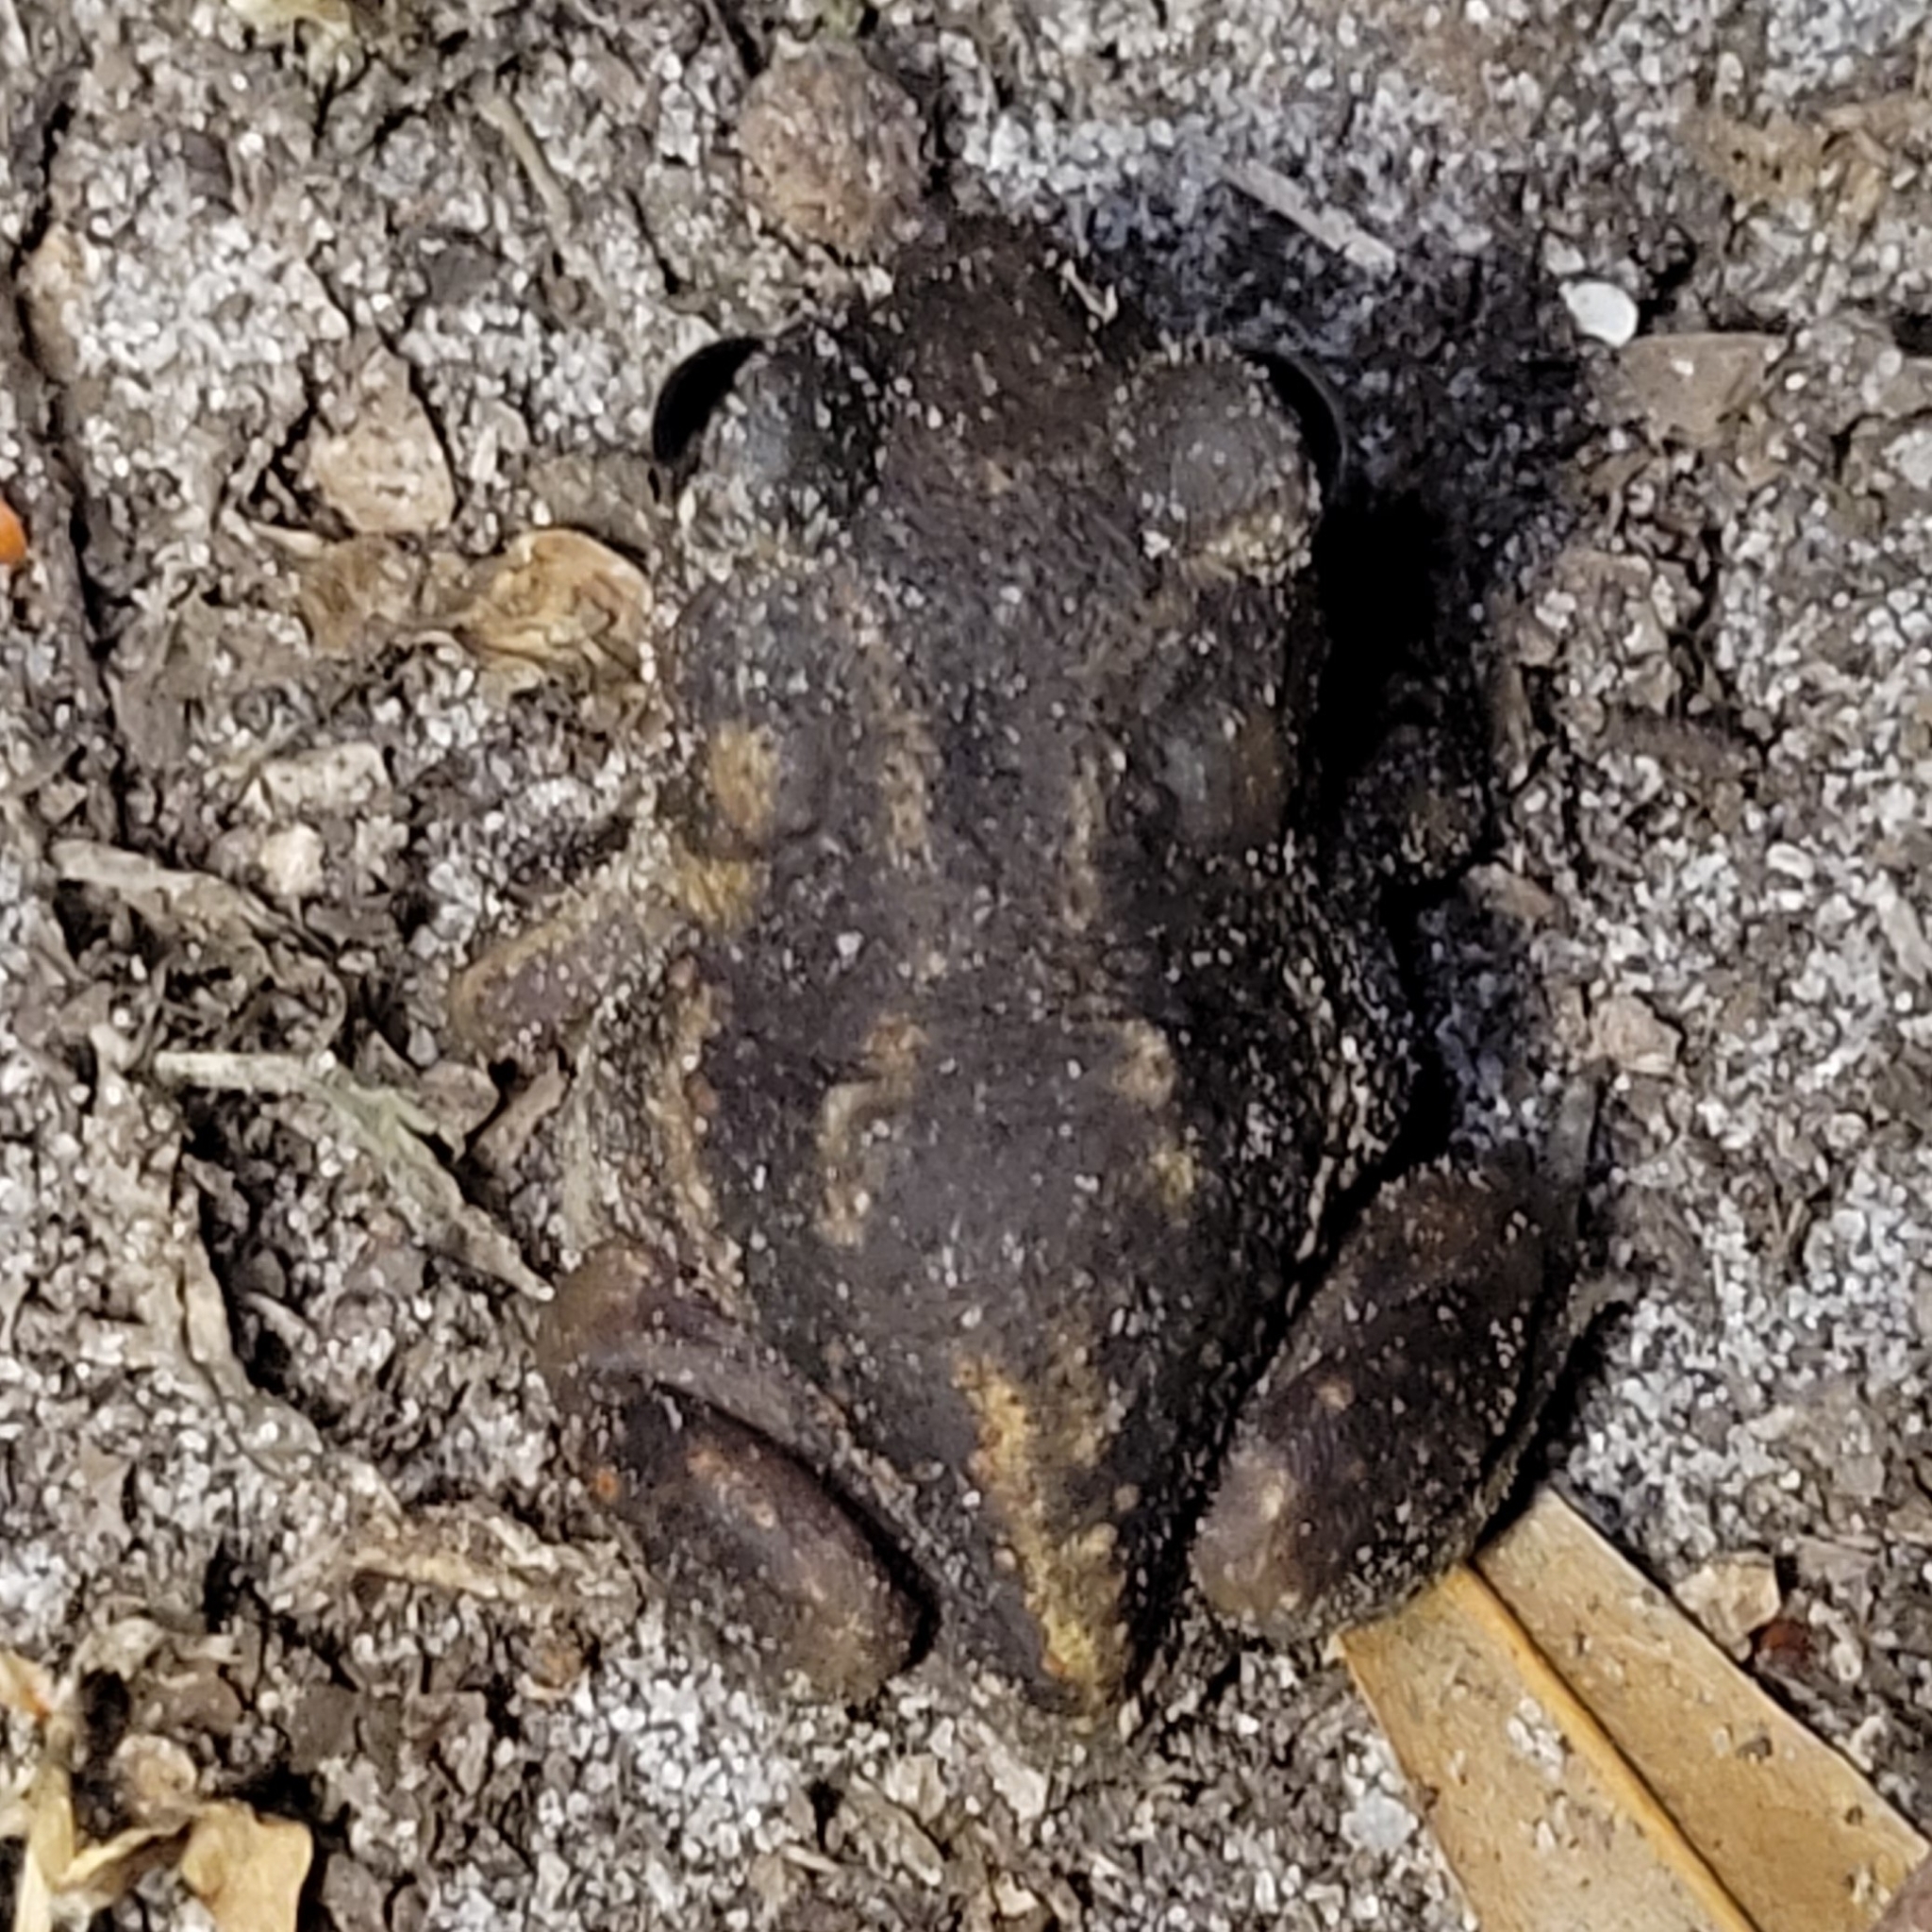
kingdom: Animalia
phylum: Chordata
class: Amphibia
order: Anura
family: Scaphiopodidae
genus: Scaphiopus
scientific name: Scaphiopus holbrookii
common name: Eastern spadefoot toad
